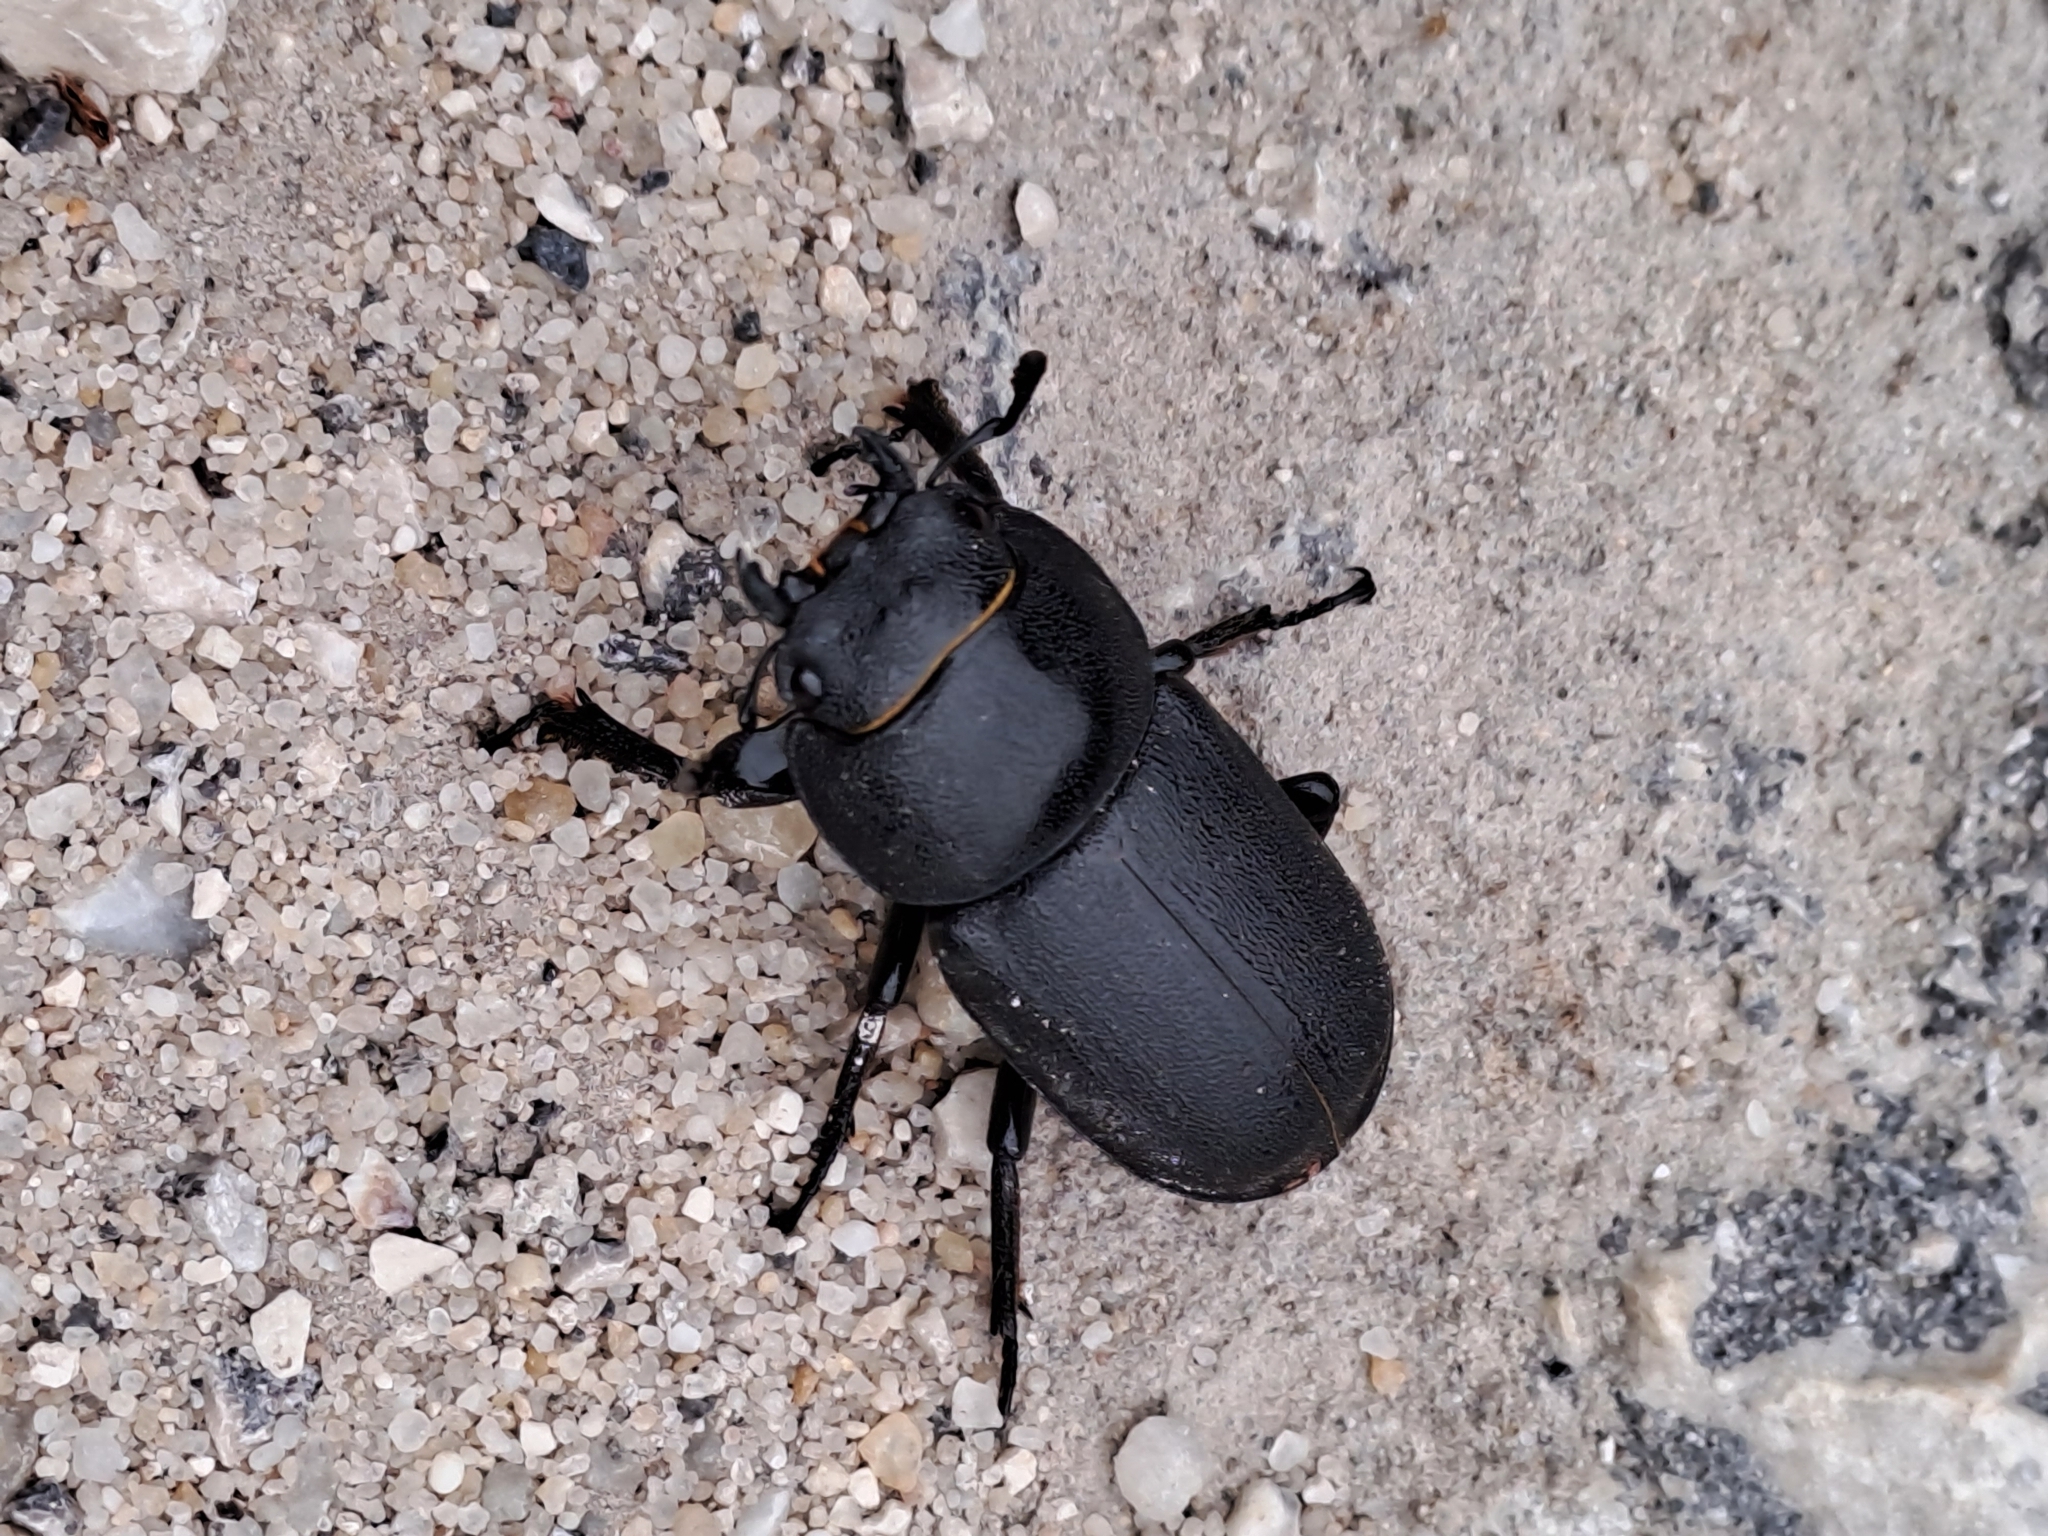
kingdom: Animalia
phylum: Arthropoda
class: Insecta
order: Coleoptera
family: Lucanidae
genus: Dorcus
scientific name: Dorcus parallelipipedus
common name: Lesser stag beetle
